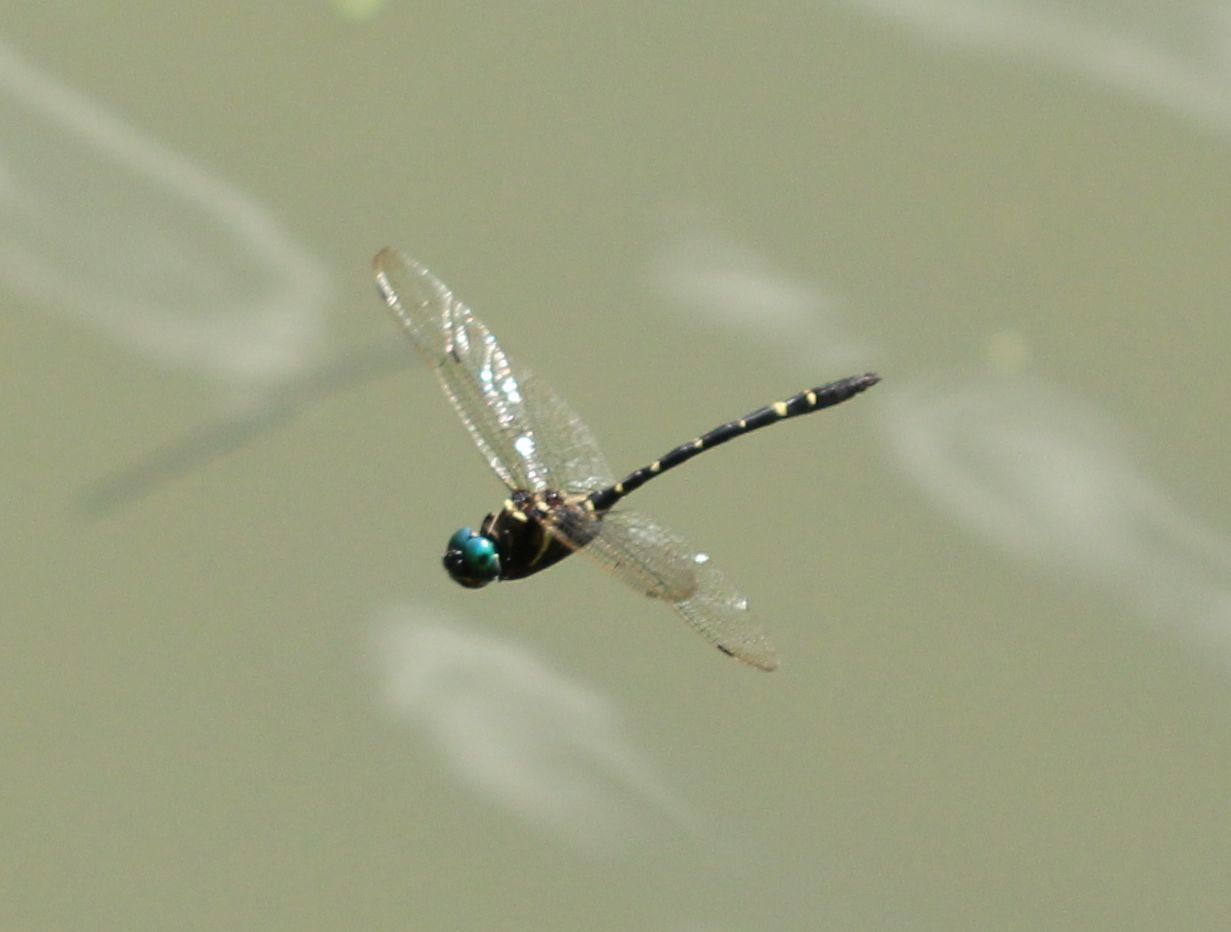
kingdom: Animalia
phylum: Arthropoda
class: Insecta
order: Odonata
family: Macromiidae
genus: Macromia
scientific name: Macromia taeniolata
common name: Royal river cruiser
